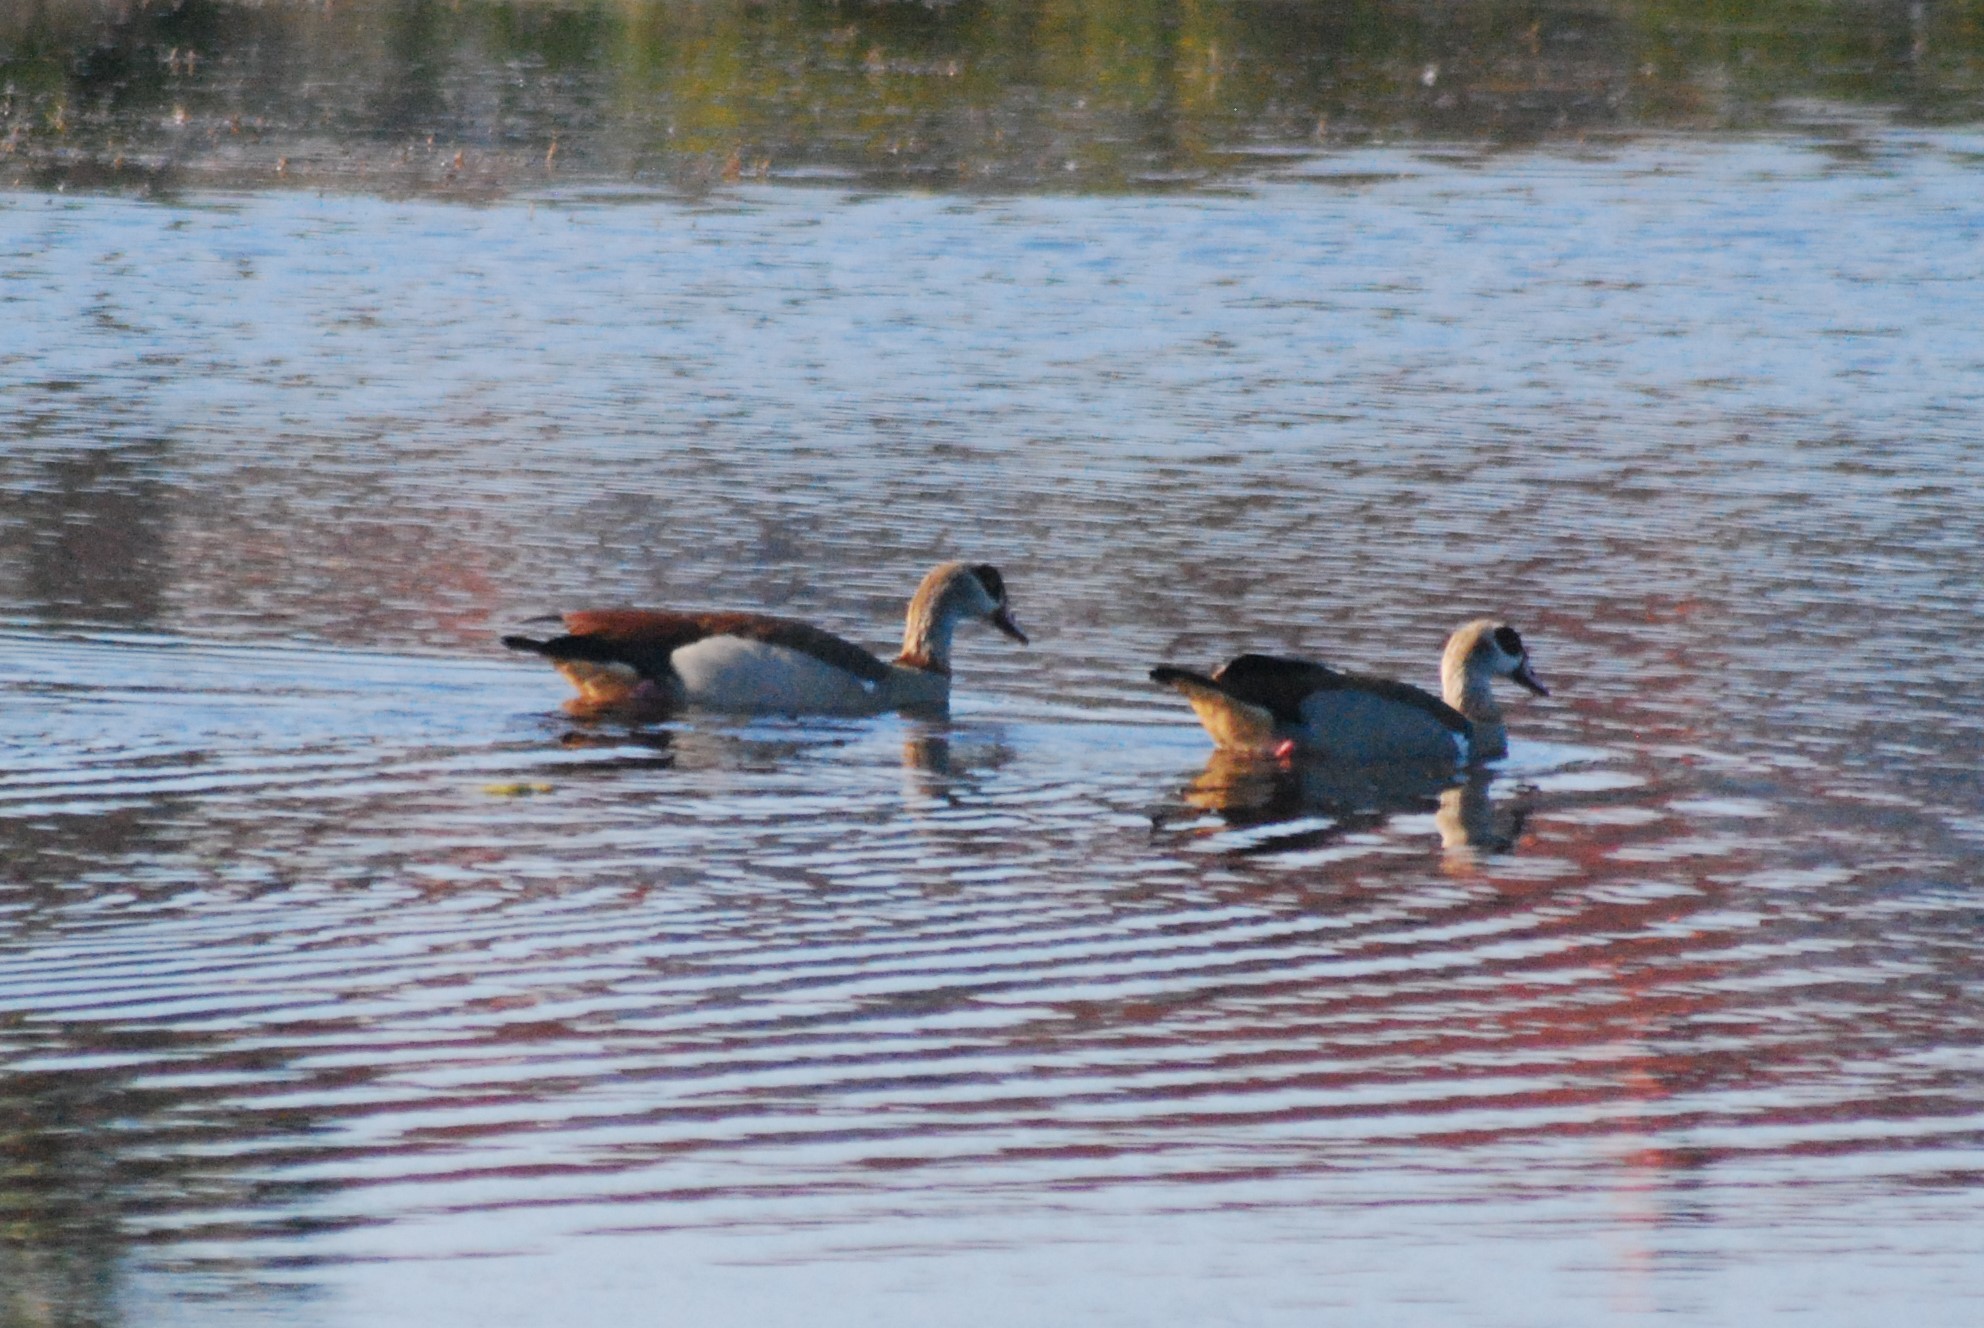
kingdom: Animalia
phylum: Chordata
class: Aves
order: Anseriformes
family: Anatidae
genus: Alopochen
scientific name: Alopochen aegyptiaca
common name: Egyptian goose
